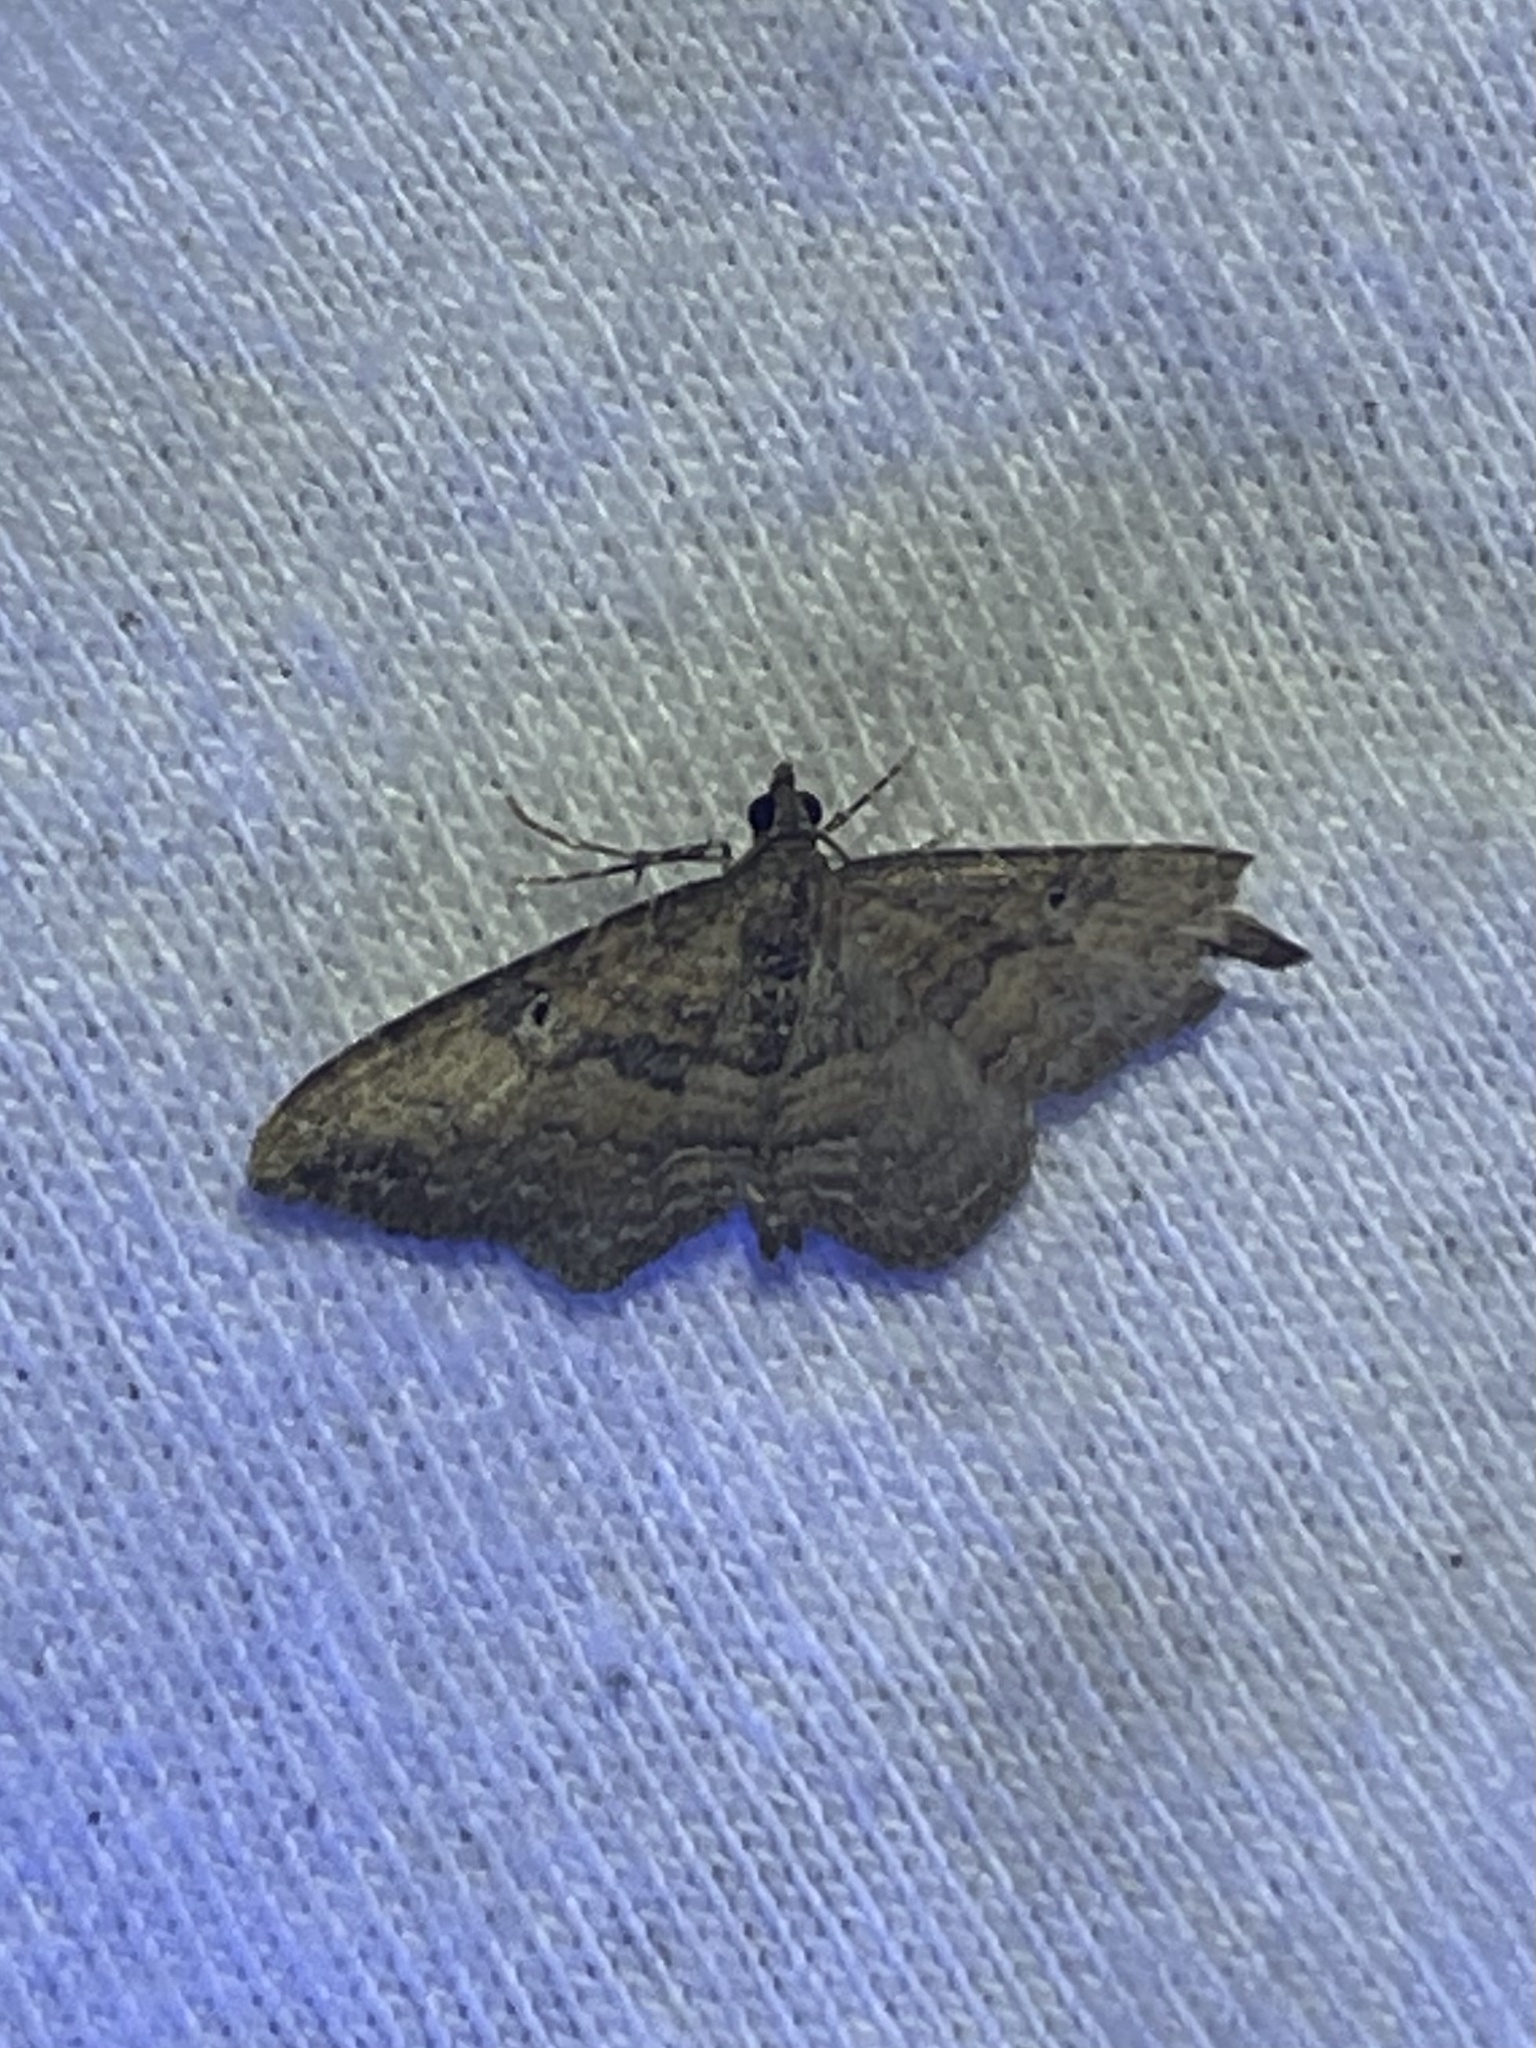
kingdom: Animalia
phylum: Arthropoda
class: Insecta
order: Lepidoptera
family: Geometridae
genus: Orthonama
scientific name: Orthonama obstipata
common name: The gem
